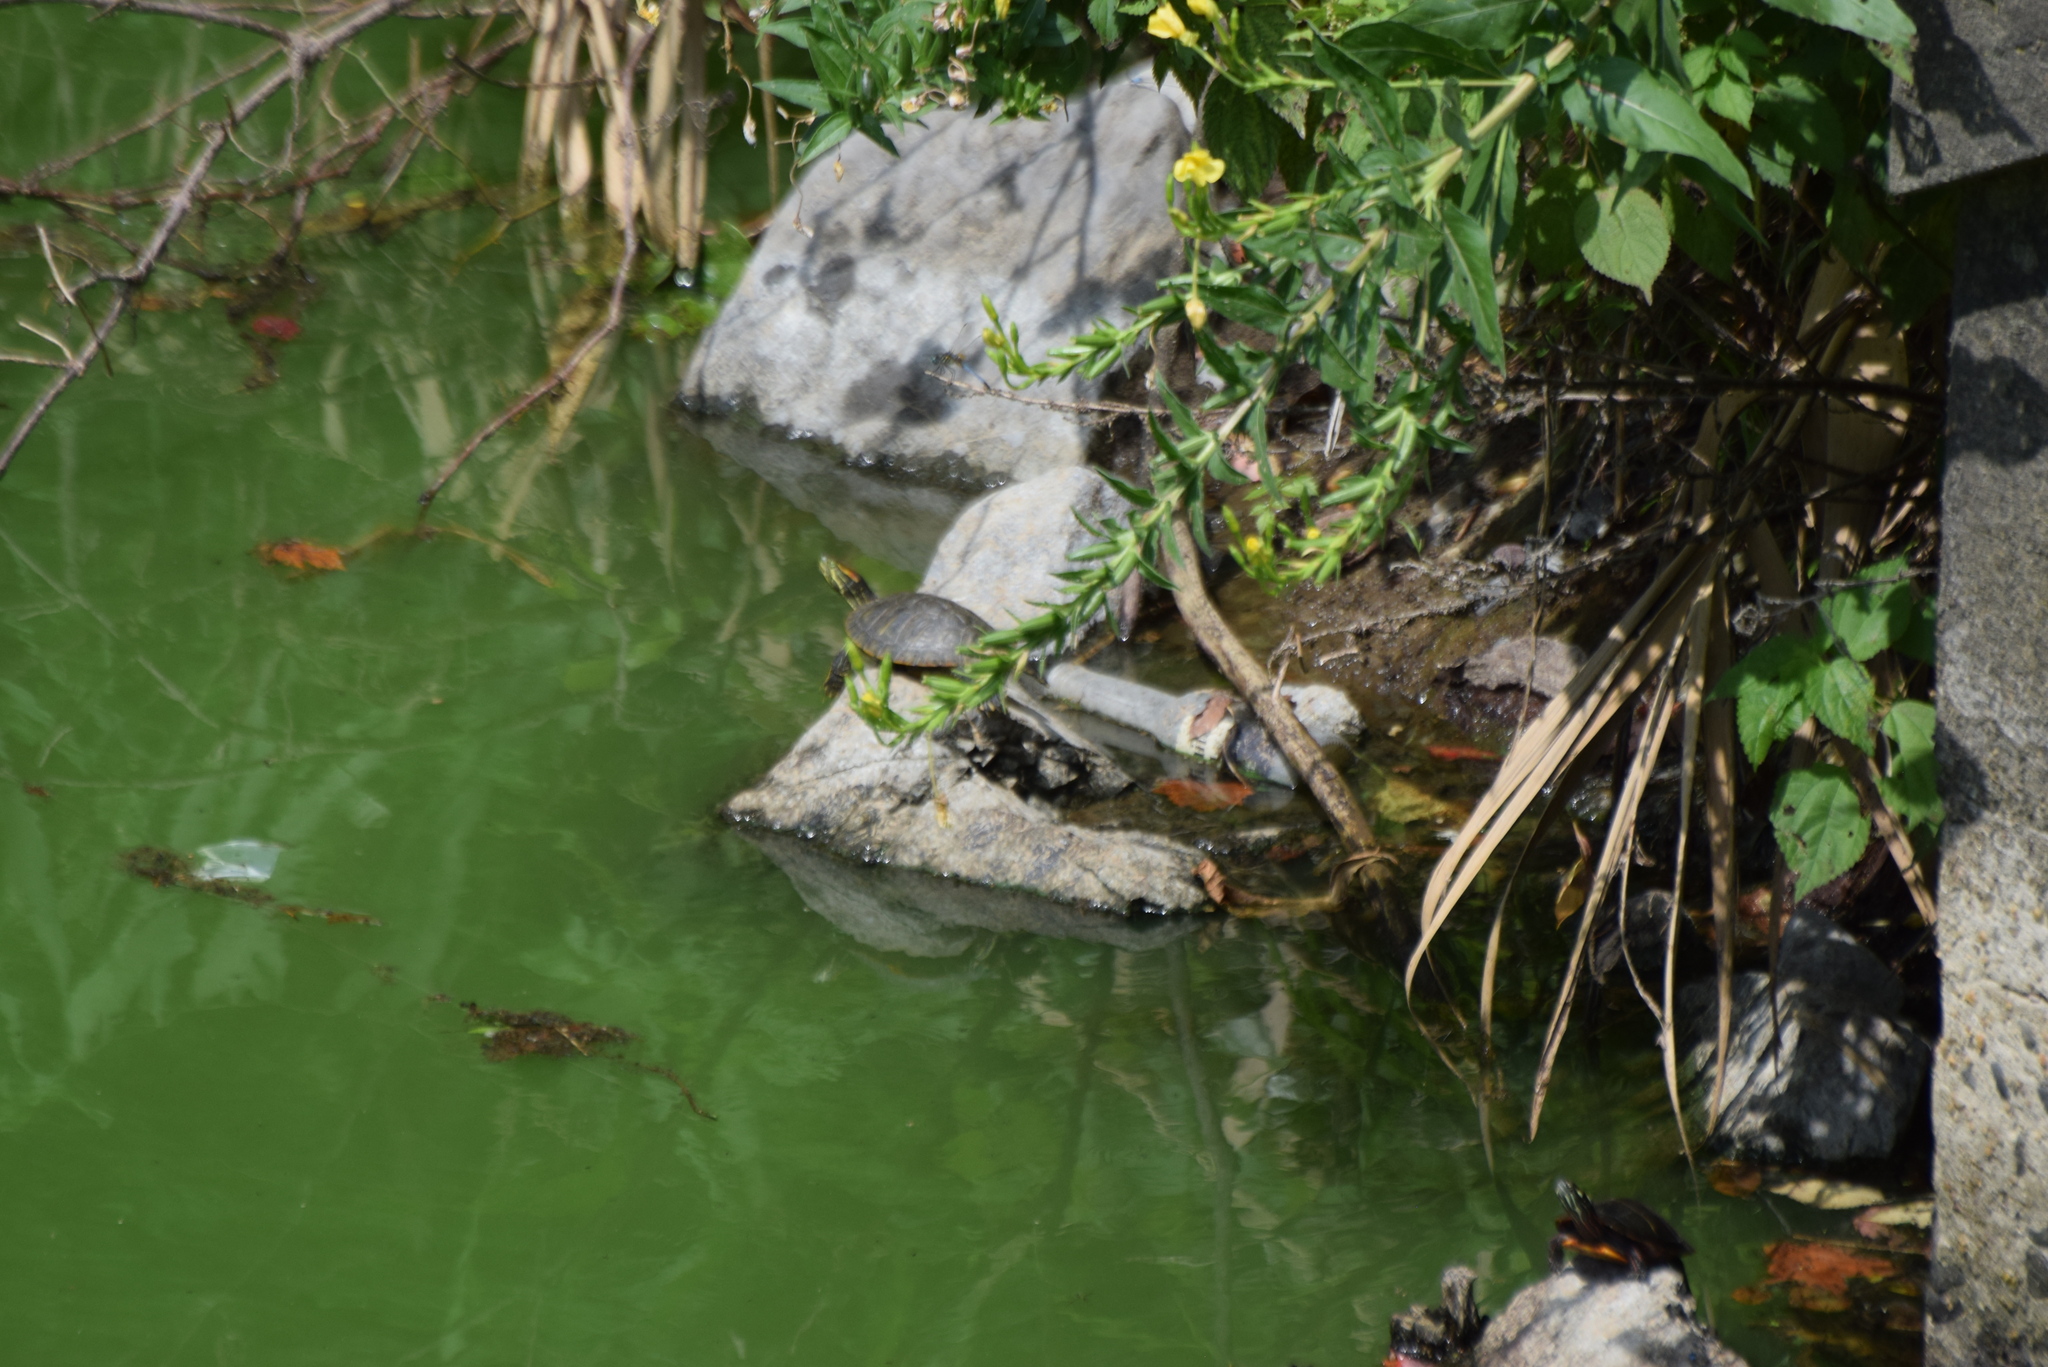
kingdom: Animalia
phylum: Chordata
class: Testudines
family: Emydidae
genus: Trachemys
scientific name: Trachemys scripta
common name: Slider
